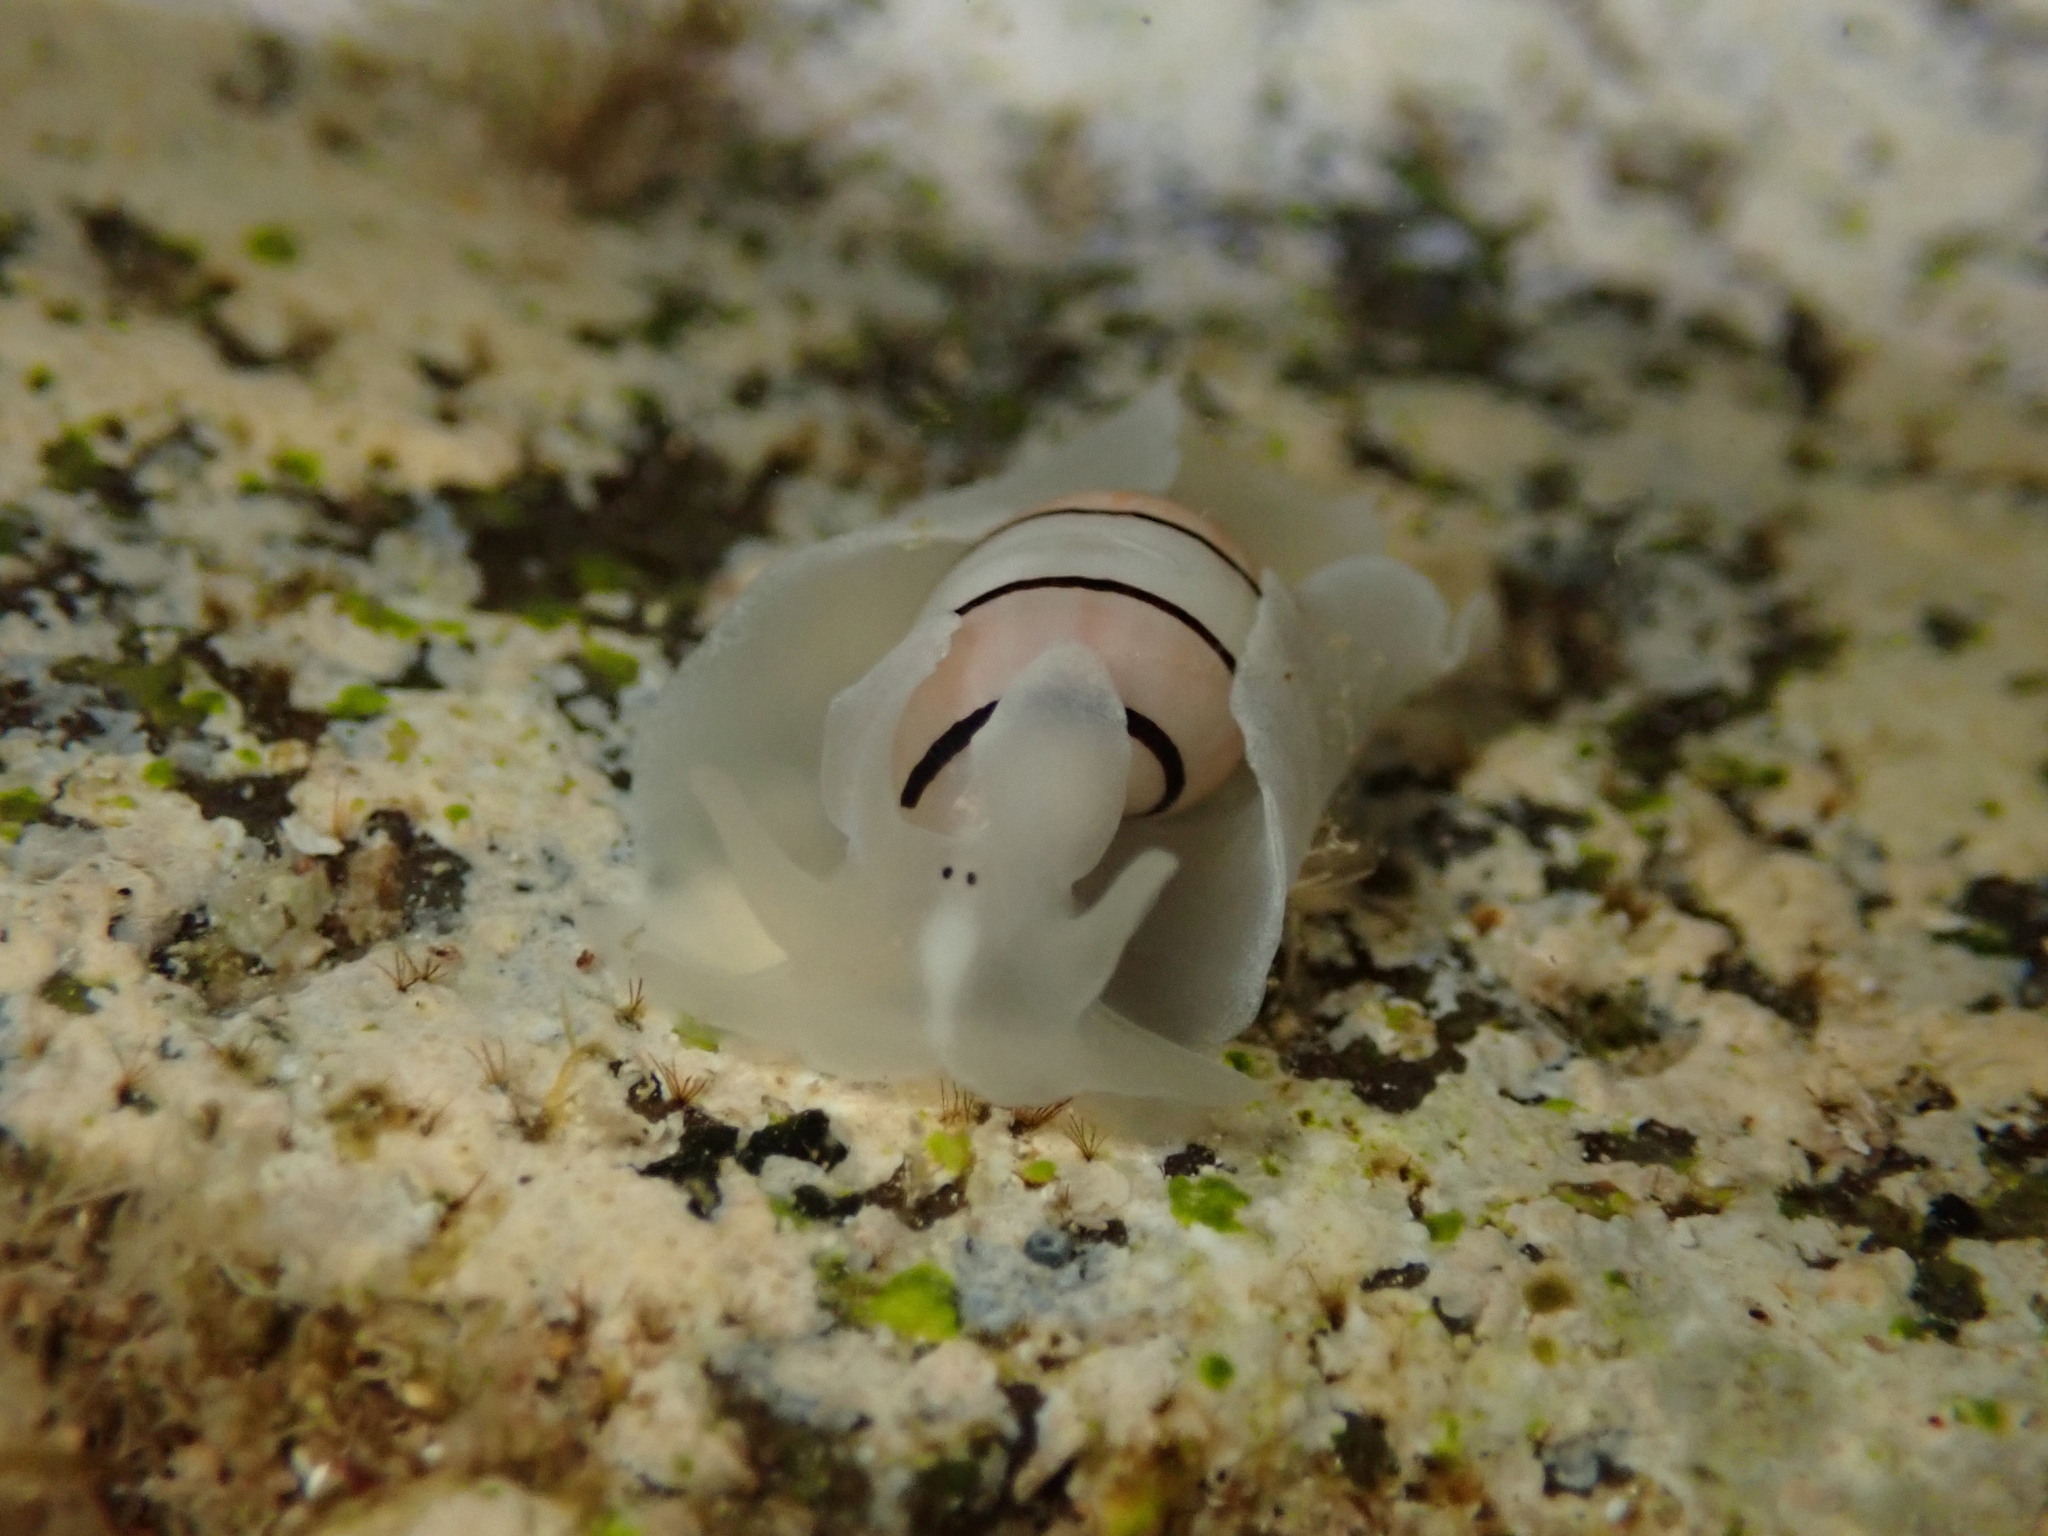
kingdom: Animalia
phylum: Mollusca
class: Gastropoda
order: Cephalaspidea
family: Aplustridae
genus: Aplustrum
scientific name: Aplustrum amplustre
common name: Royal paperbubble
